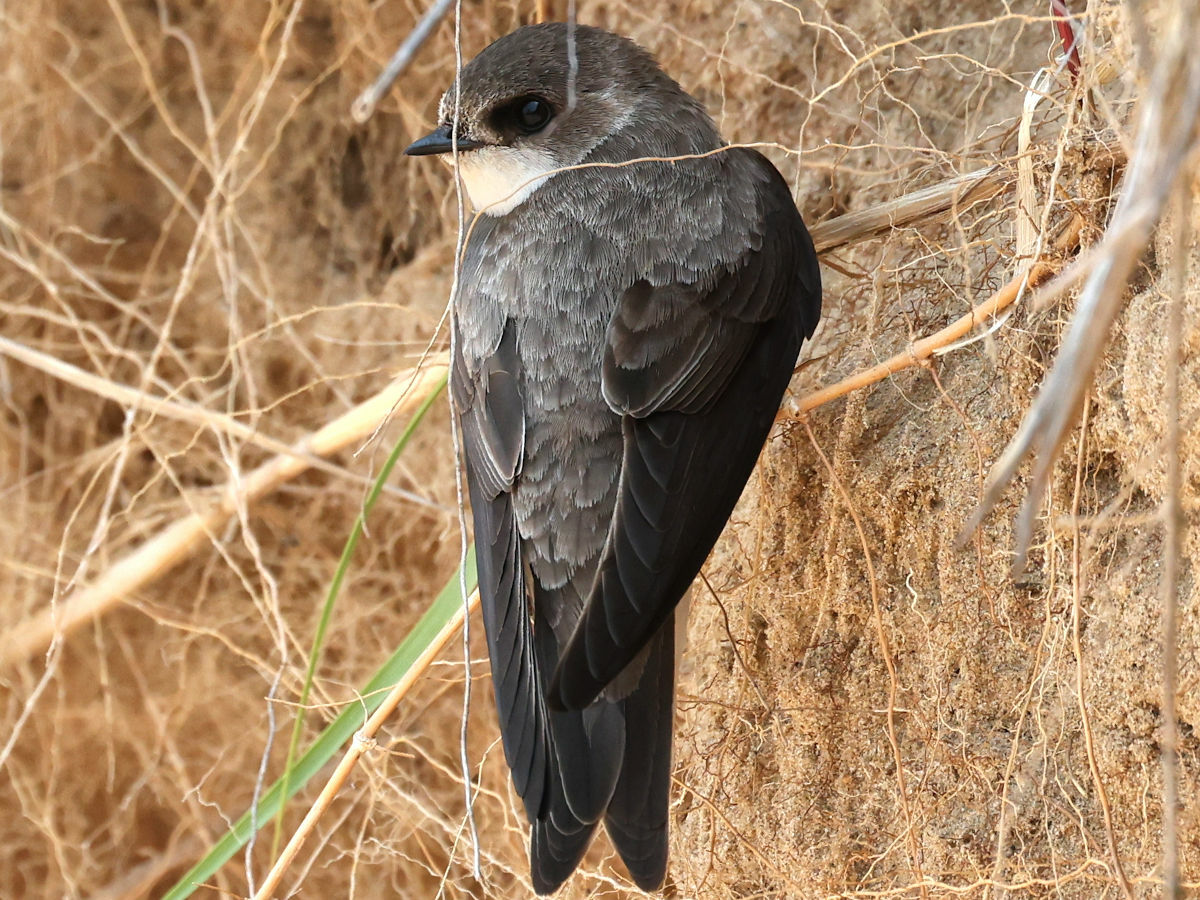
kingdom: Animalia
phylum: Chordata
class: Aves
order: Passeriformes
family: Hirundinidae
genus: Riparia
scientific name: Riparia riparia
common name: Sand martin
